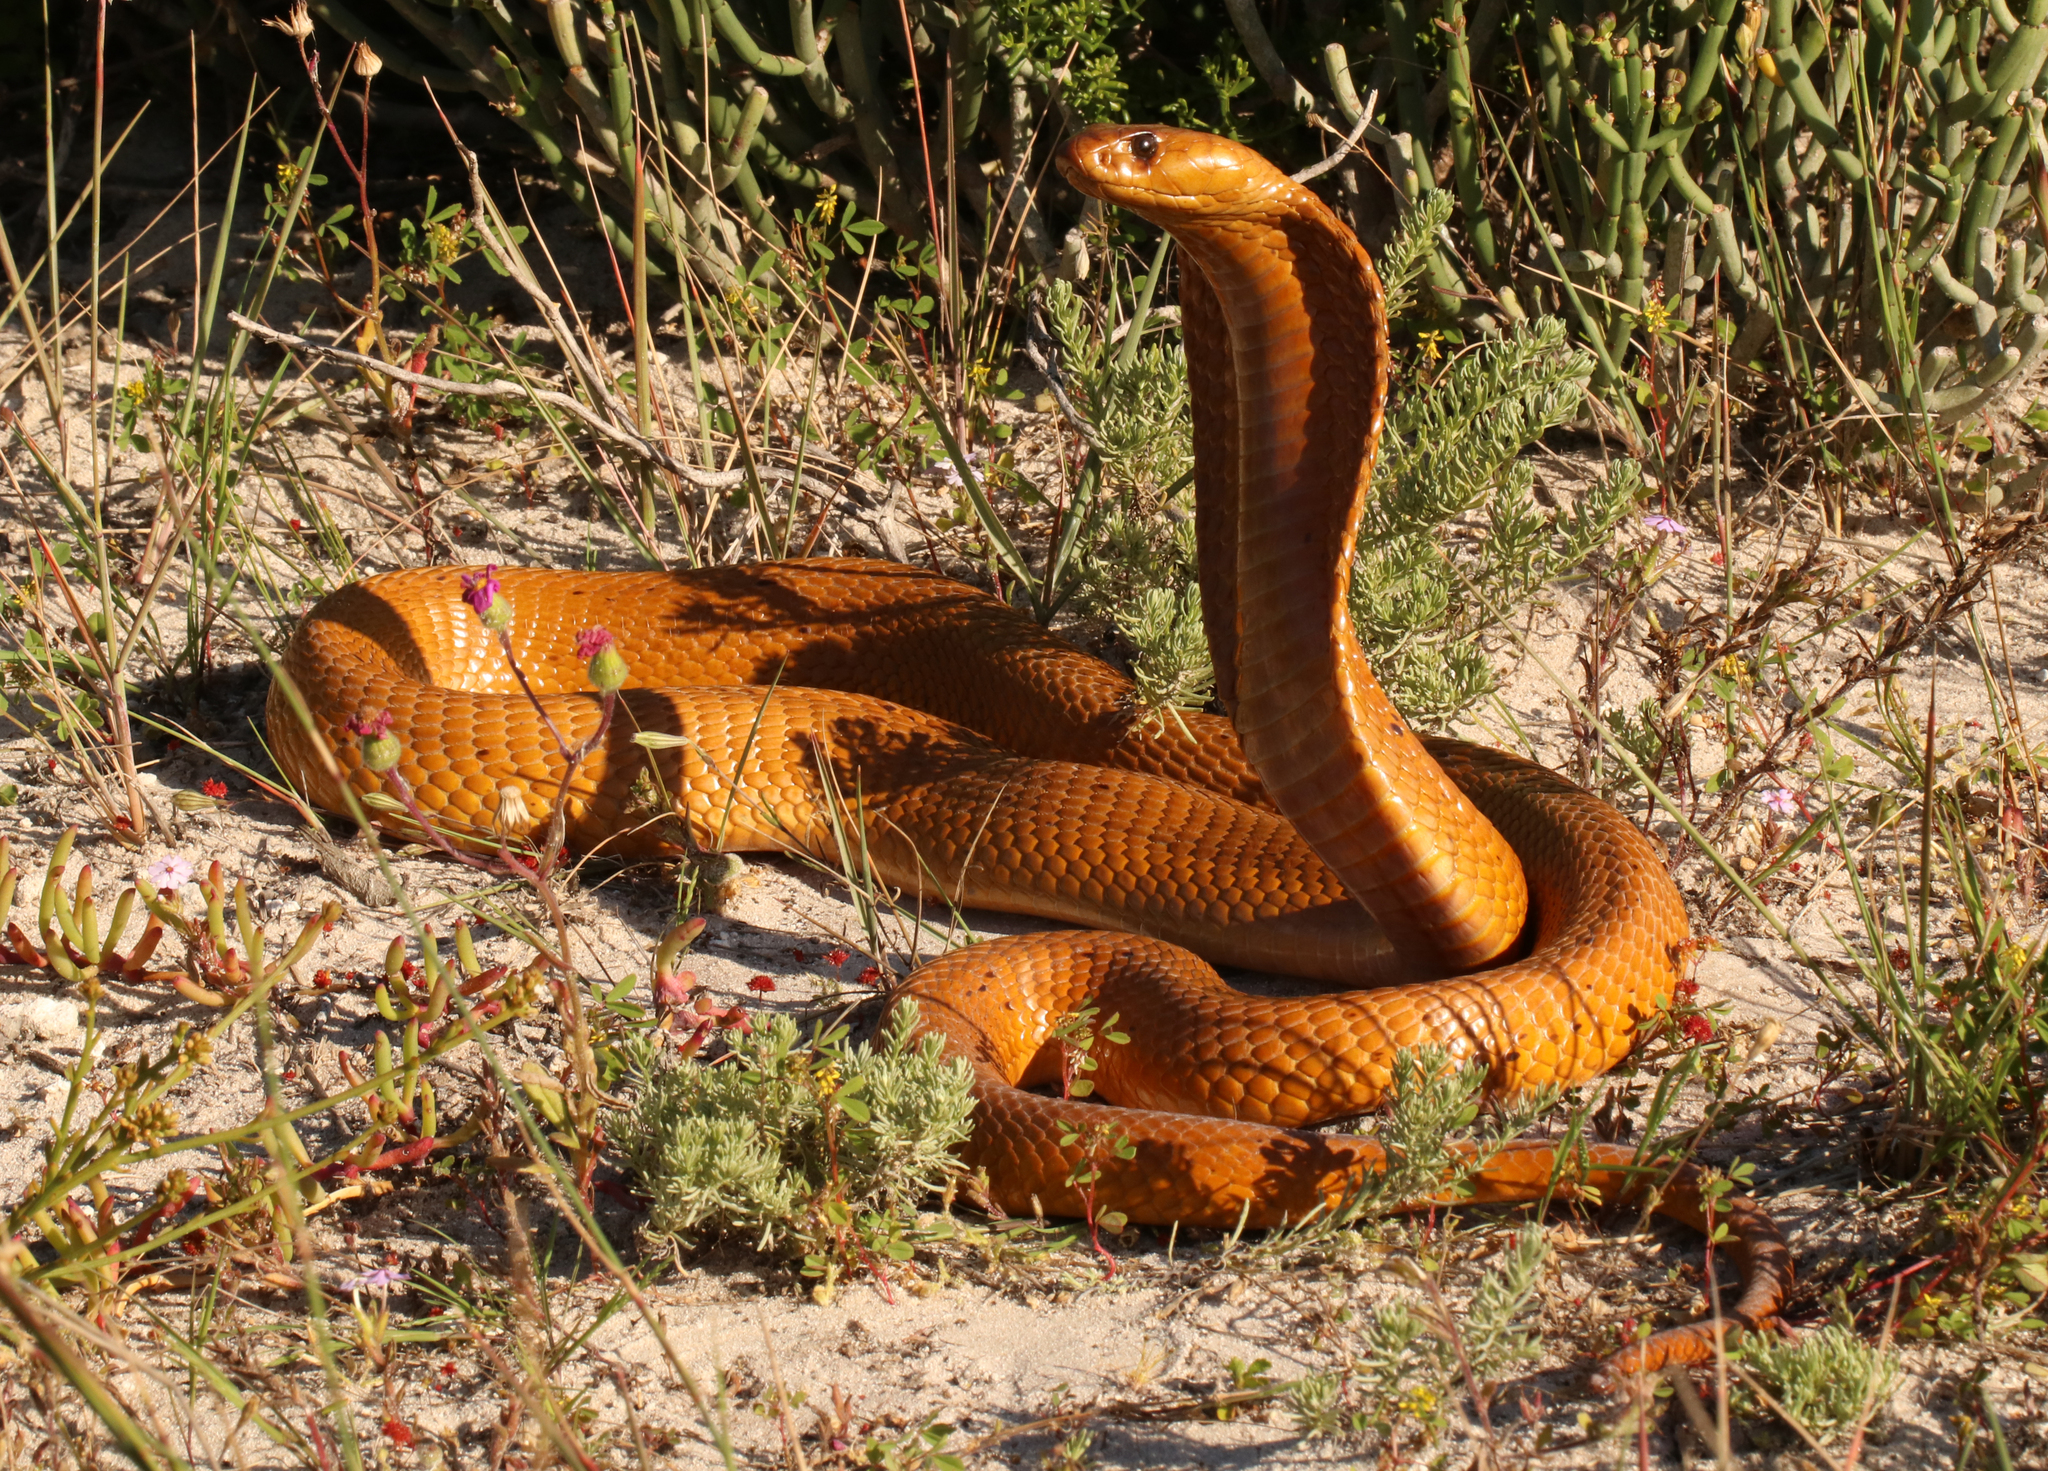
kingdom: Animalia
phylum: Chordata
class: Squamata
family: Elapidae
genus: Naja
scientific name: Naja nivea
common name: Cape cobra
